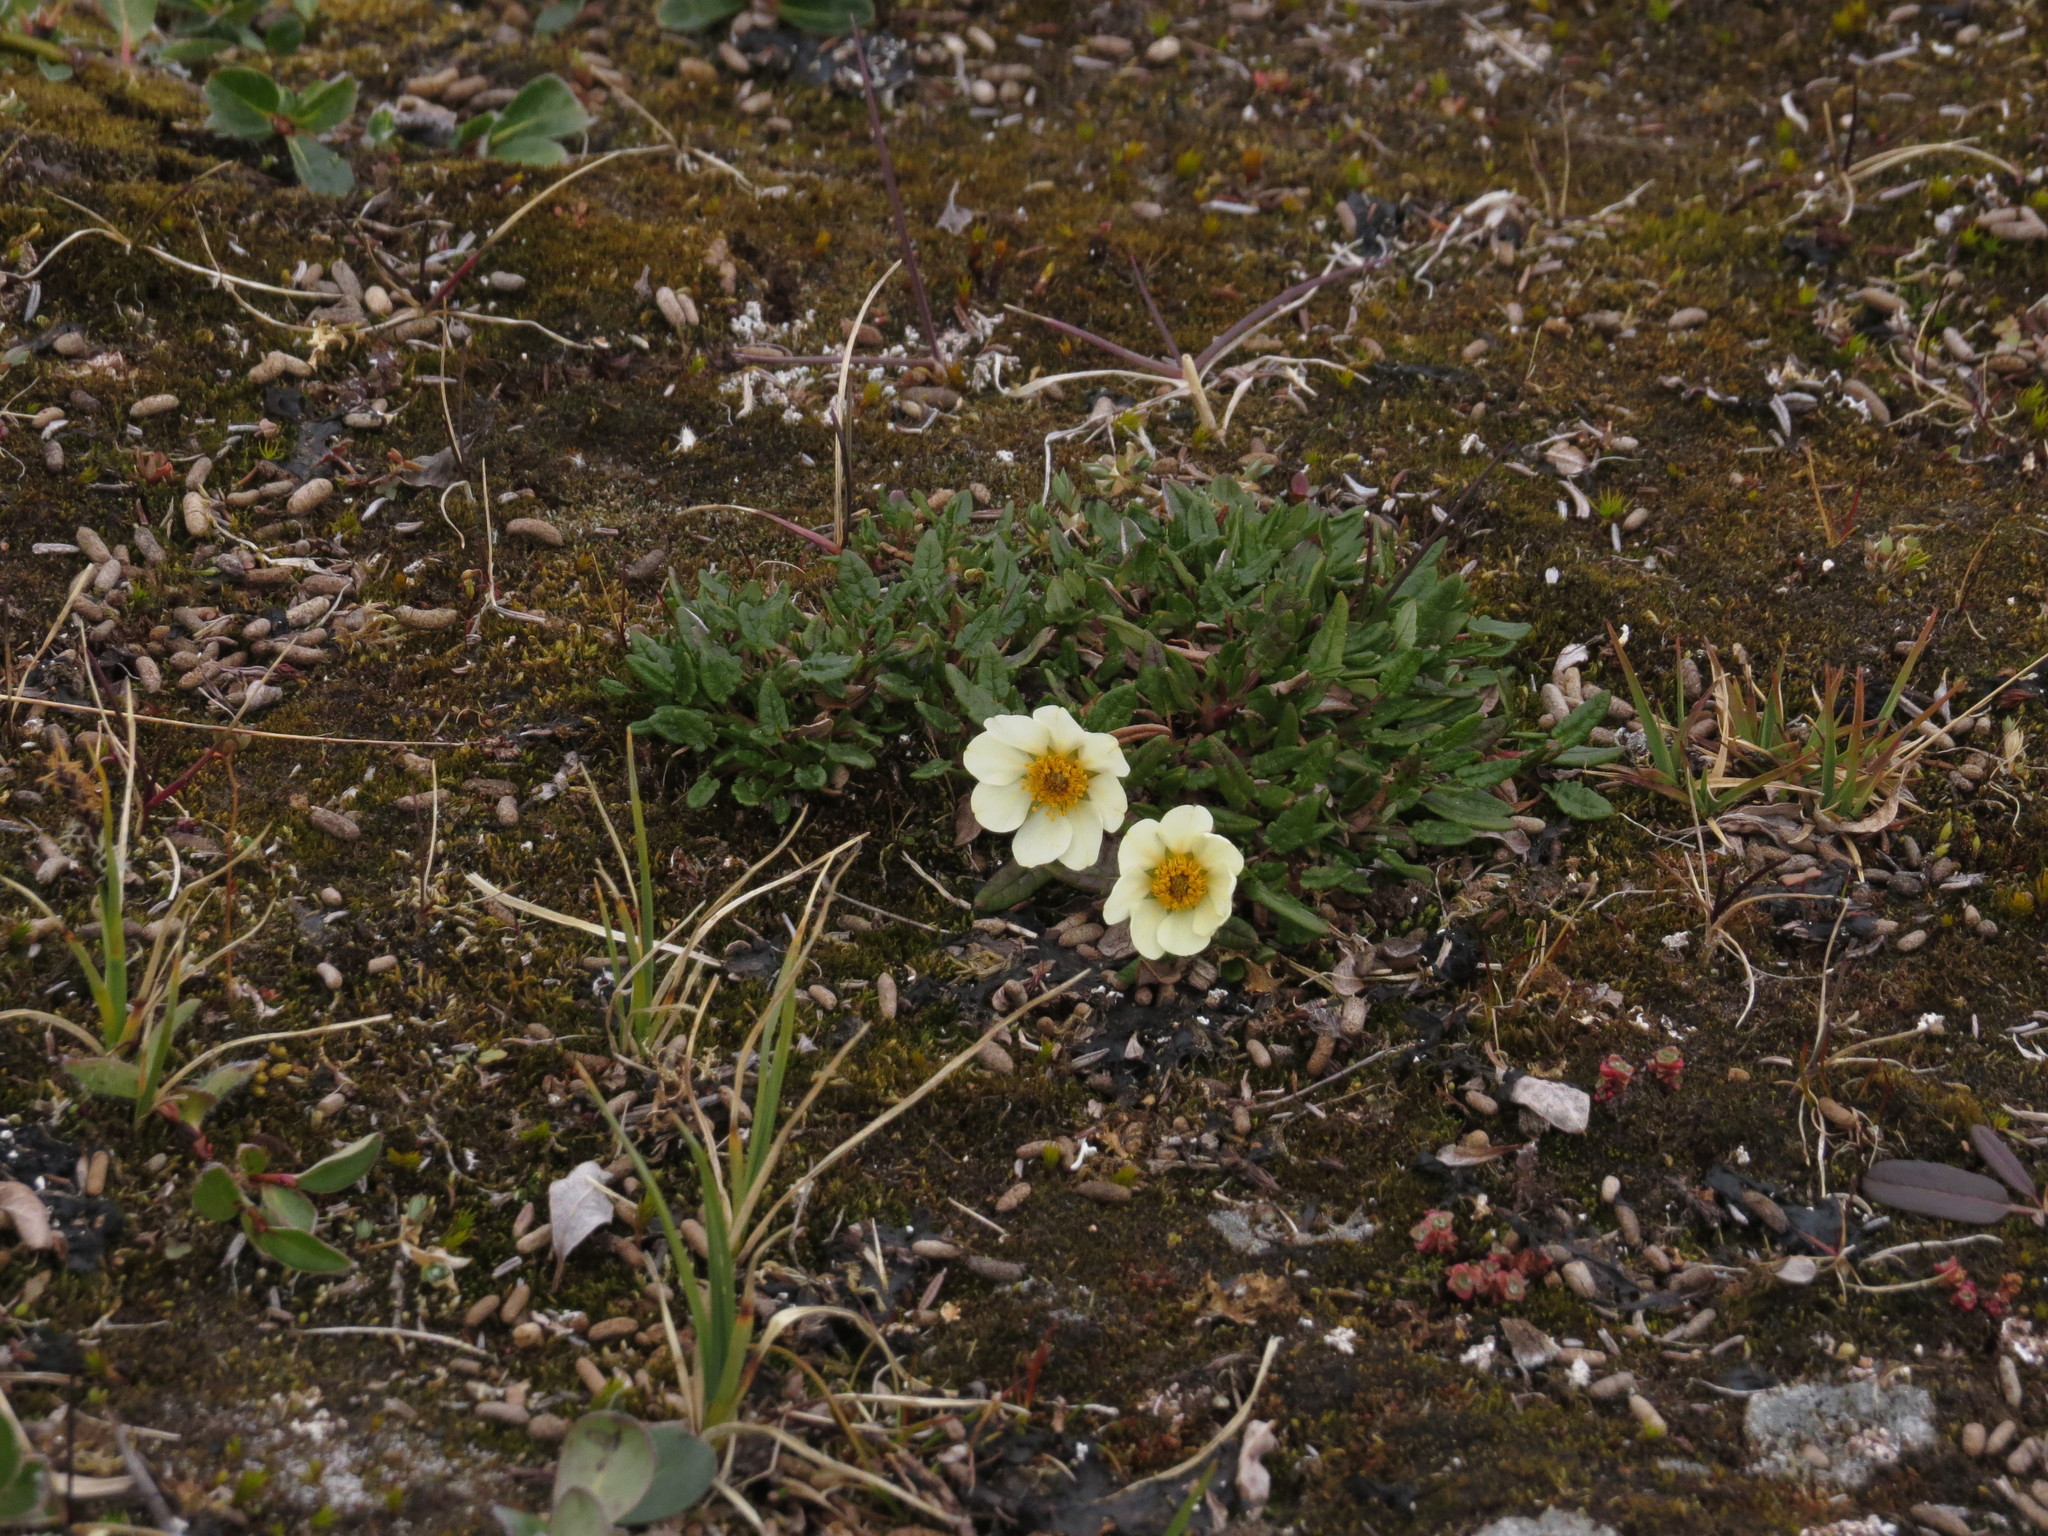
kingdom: Plantae
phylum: Tracheophyta
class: Magnoliopsida
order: Rosales
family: Rosaceae
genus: Dryas
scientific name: Dryas integrifolia
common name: Entire-leaved mountain avens
